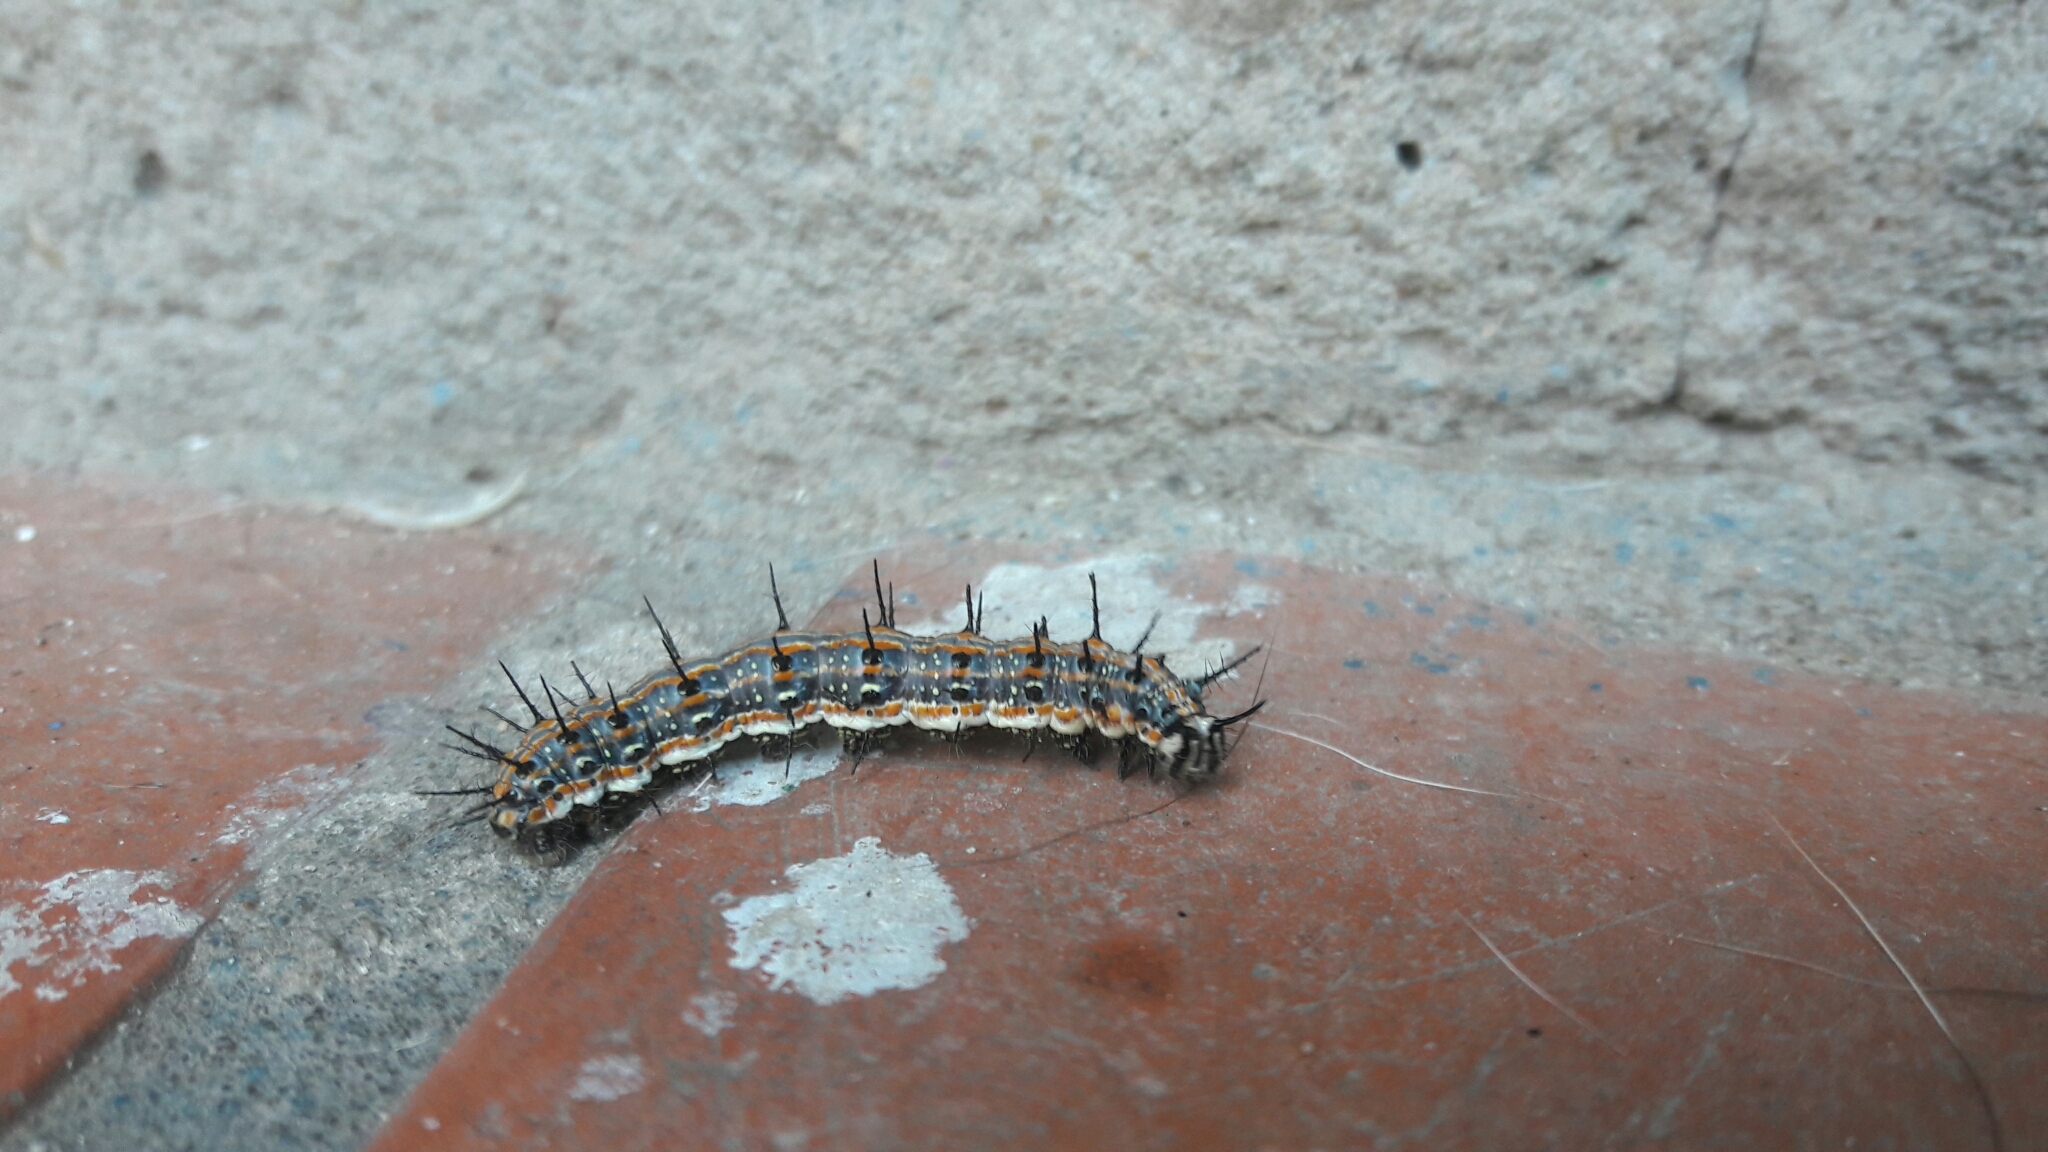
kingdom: Animalia
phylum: Arthropoda
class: Insecta
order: Lepidoptera
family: Nymphalidae
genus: Dione
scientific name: Dione vanillae
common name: Gulf fritillary
